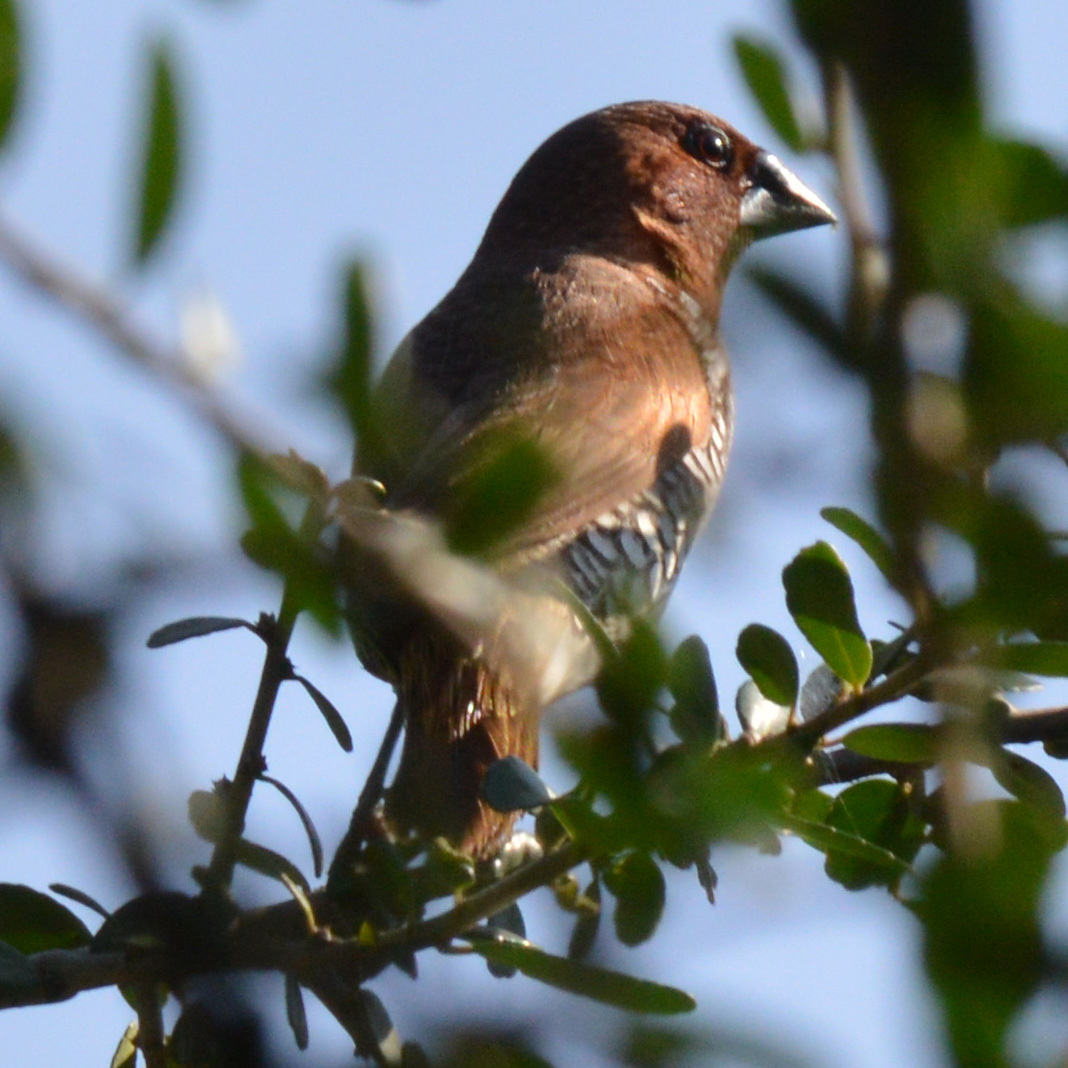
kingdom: Animalia
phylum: Chordata
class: Aves
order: Passeriformes
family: Estrildidae
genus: Lonchura
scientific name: Lonchura punctulata
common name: Scaly-breasted munia
